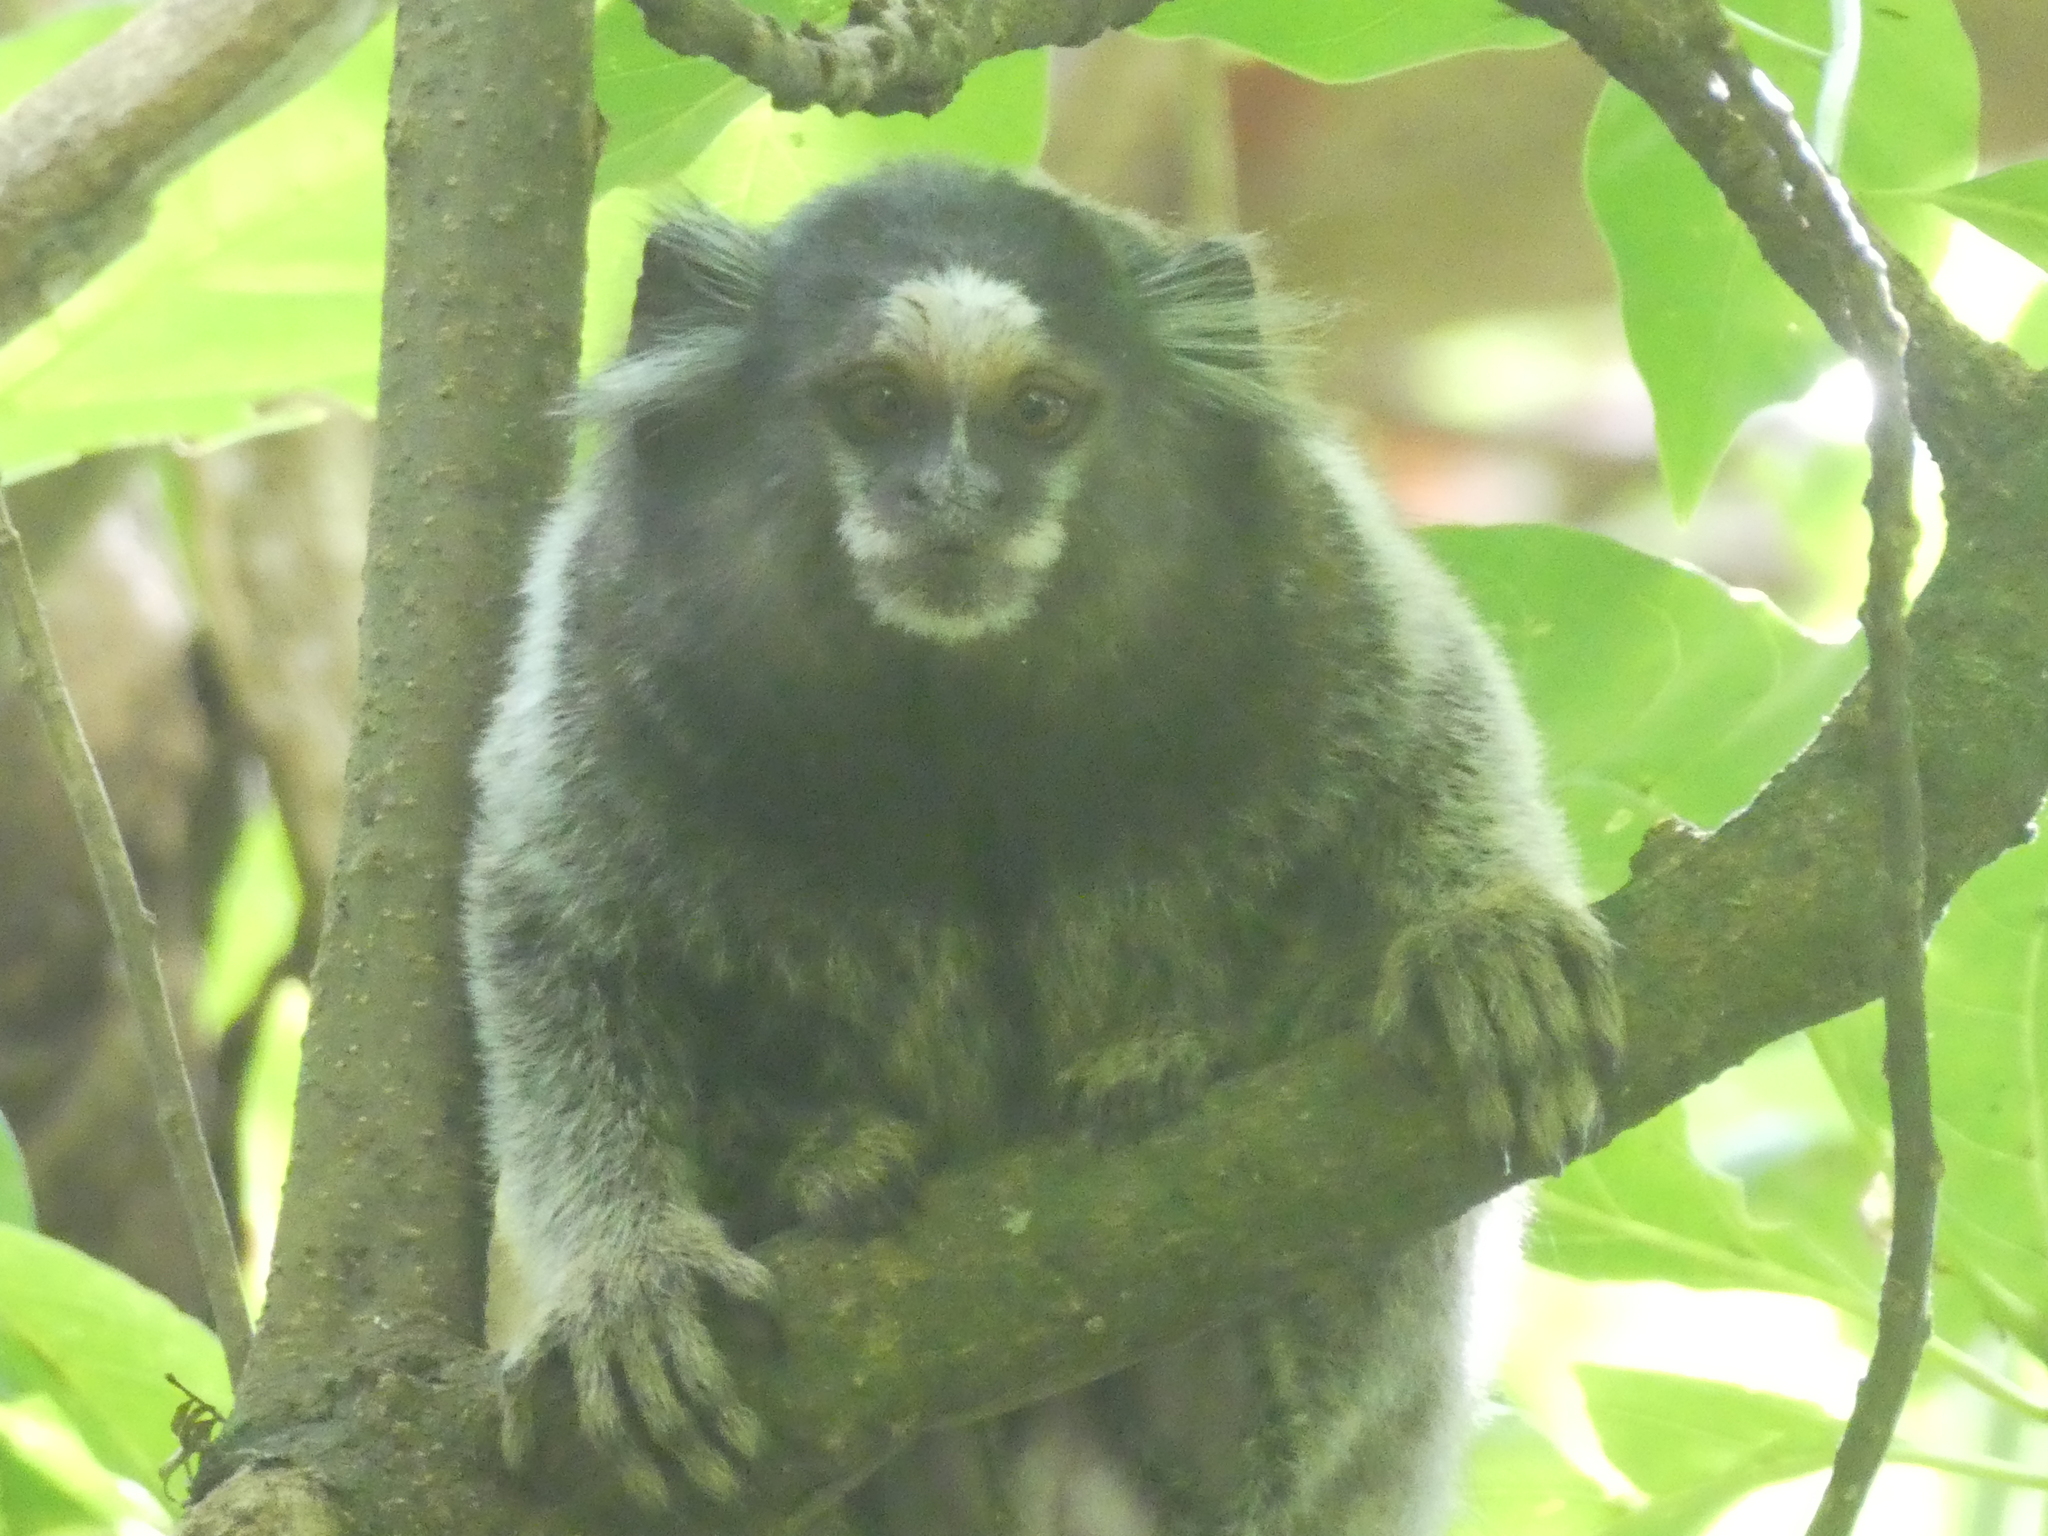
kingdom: Animalia
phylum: Chordata
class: Mammalia
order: Primates
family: Callitrichidae
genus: Callithrix
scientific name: Callithrix penicillata
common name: Black-tufted marmoset
